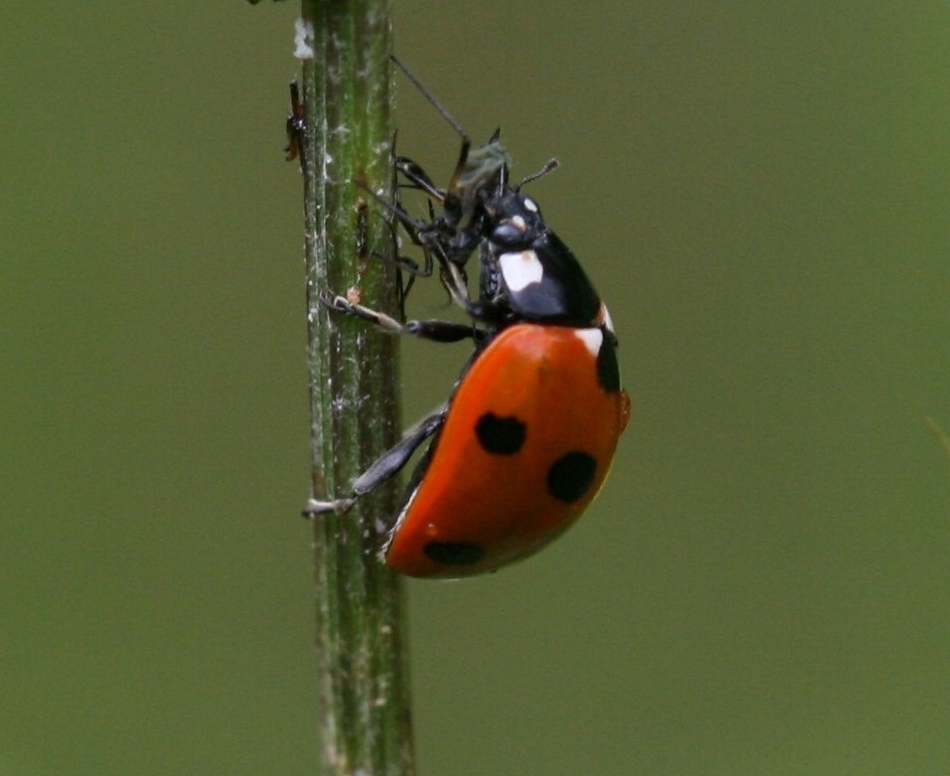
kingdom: Animalia
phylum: Arthropoda
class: Insecta
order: Coleoptera
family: Coccinellidae
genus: Coccinella
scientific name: Coccinella septempunctata
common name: Sevenspotted lady beetle
